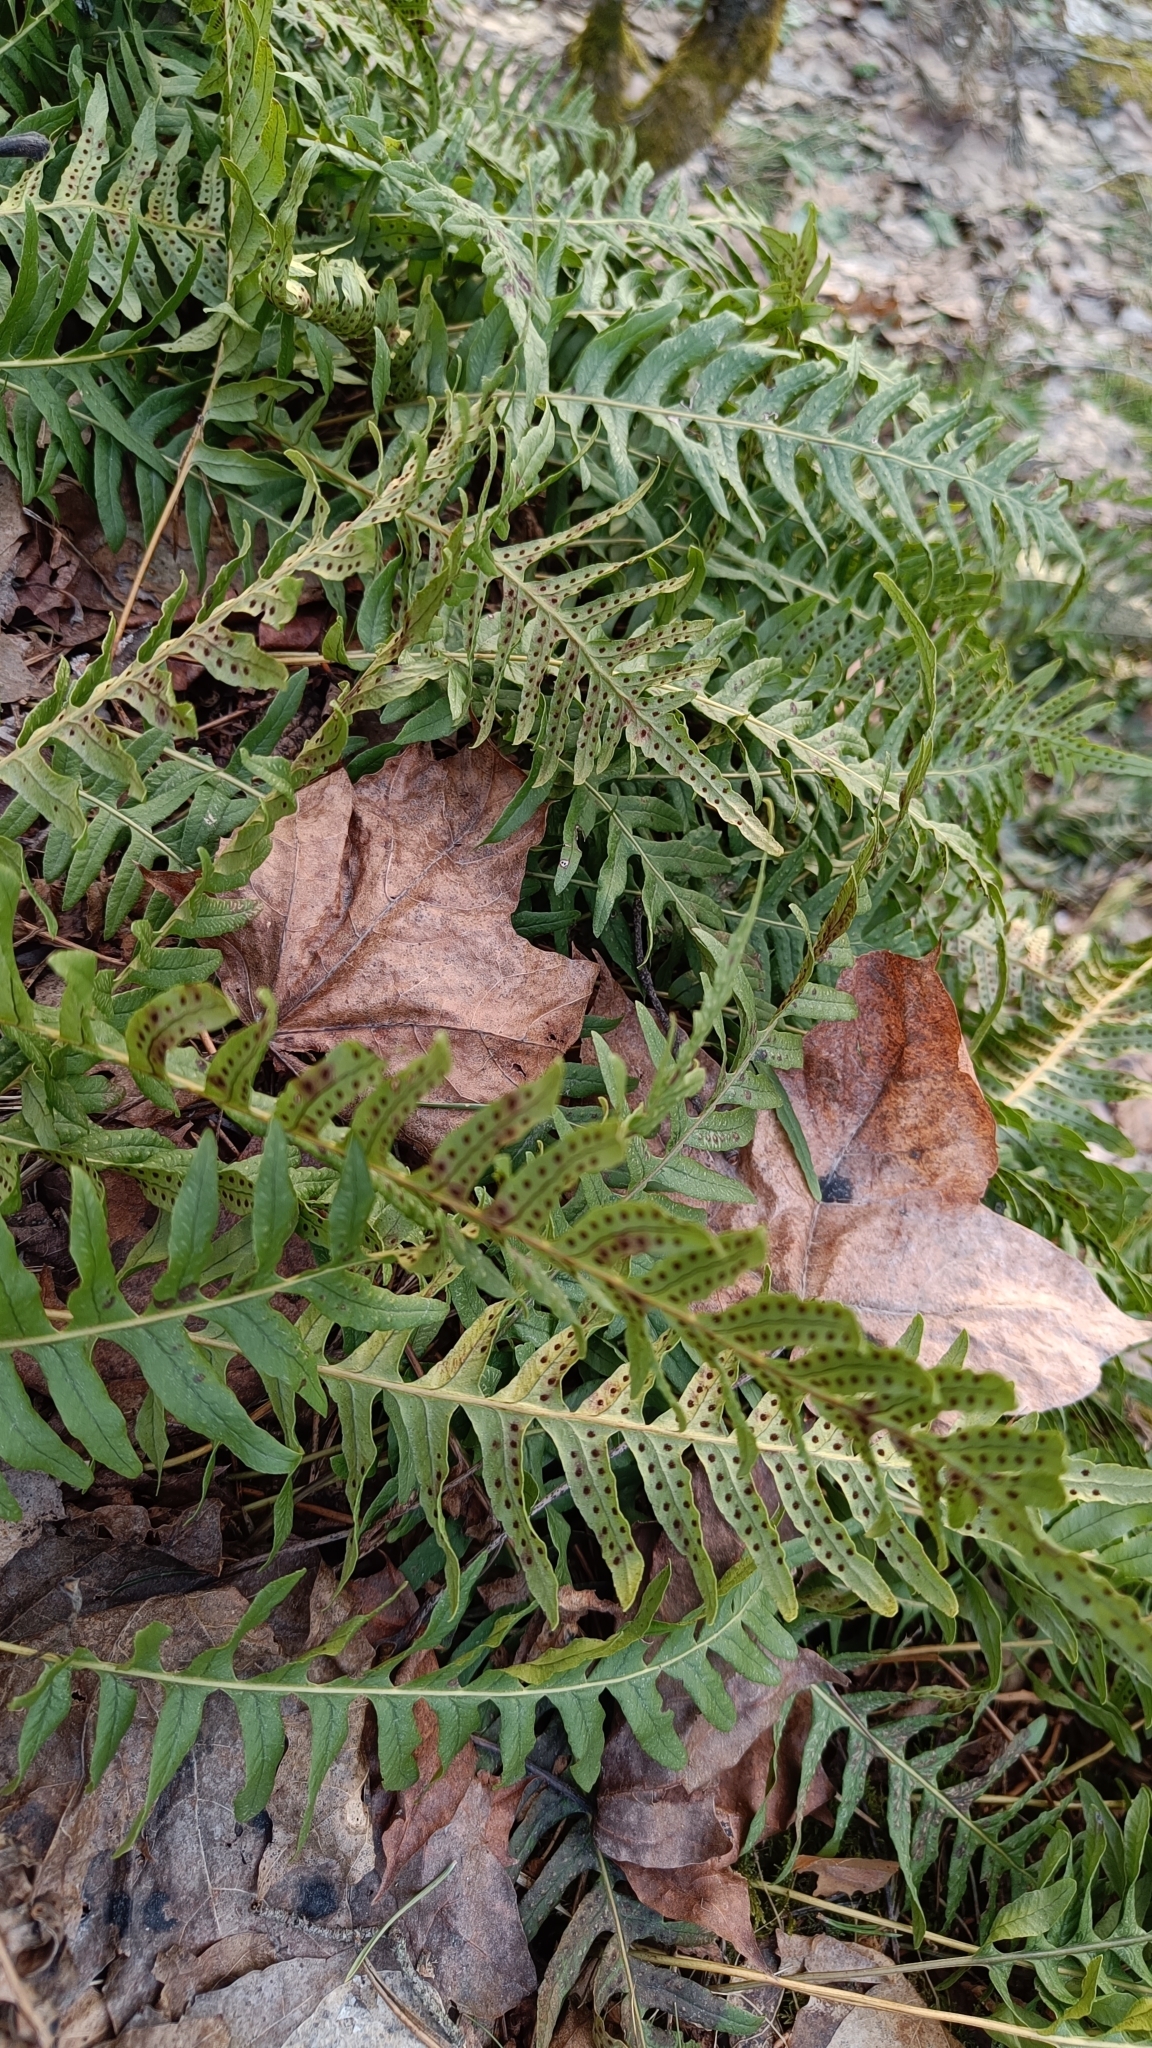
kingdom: Plantae
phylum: Tracheophyta
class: Polypodiopsida
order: Polypodiales
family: Polypodiaceae
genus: Polypodium
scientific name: Polypodium vulgare
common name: Common polypody
